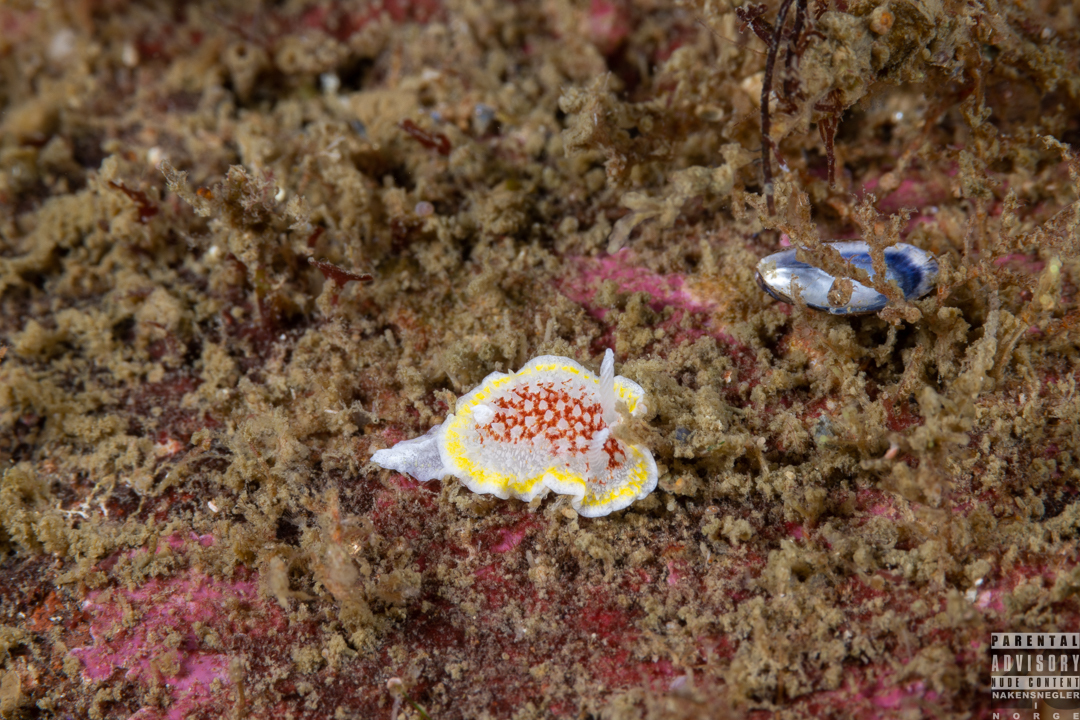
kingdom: Animalia
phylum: Mollusca
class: Gastropoda
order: Nudibranchia
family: Calycidorididae
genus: Diaphorodoris
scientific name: Diaphorodoris luteocincta
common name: Fried egg nudibranch
